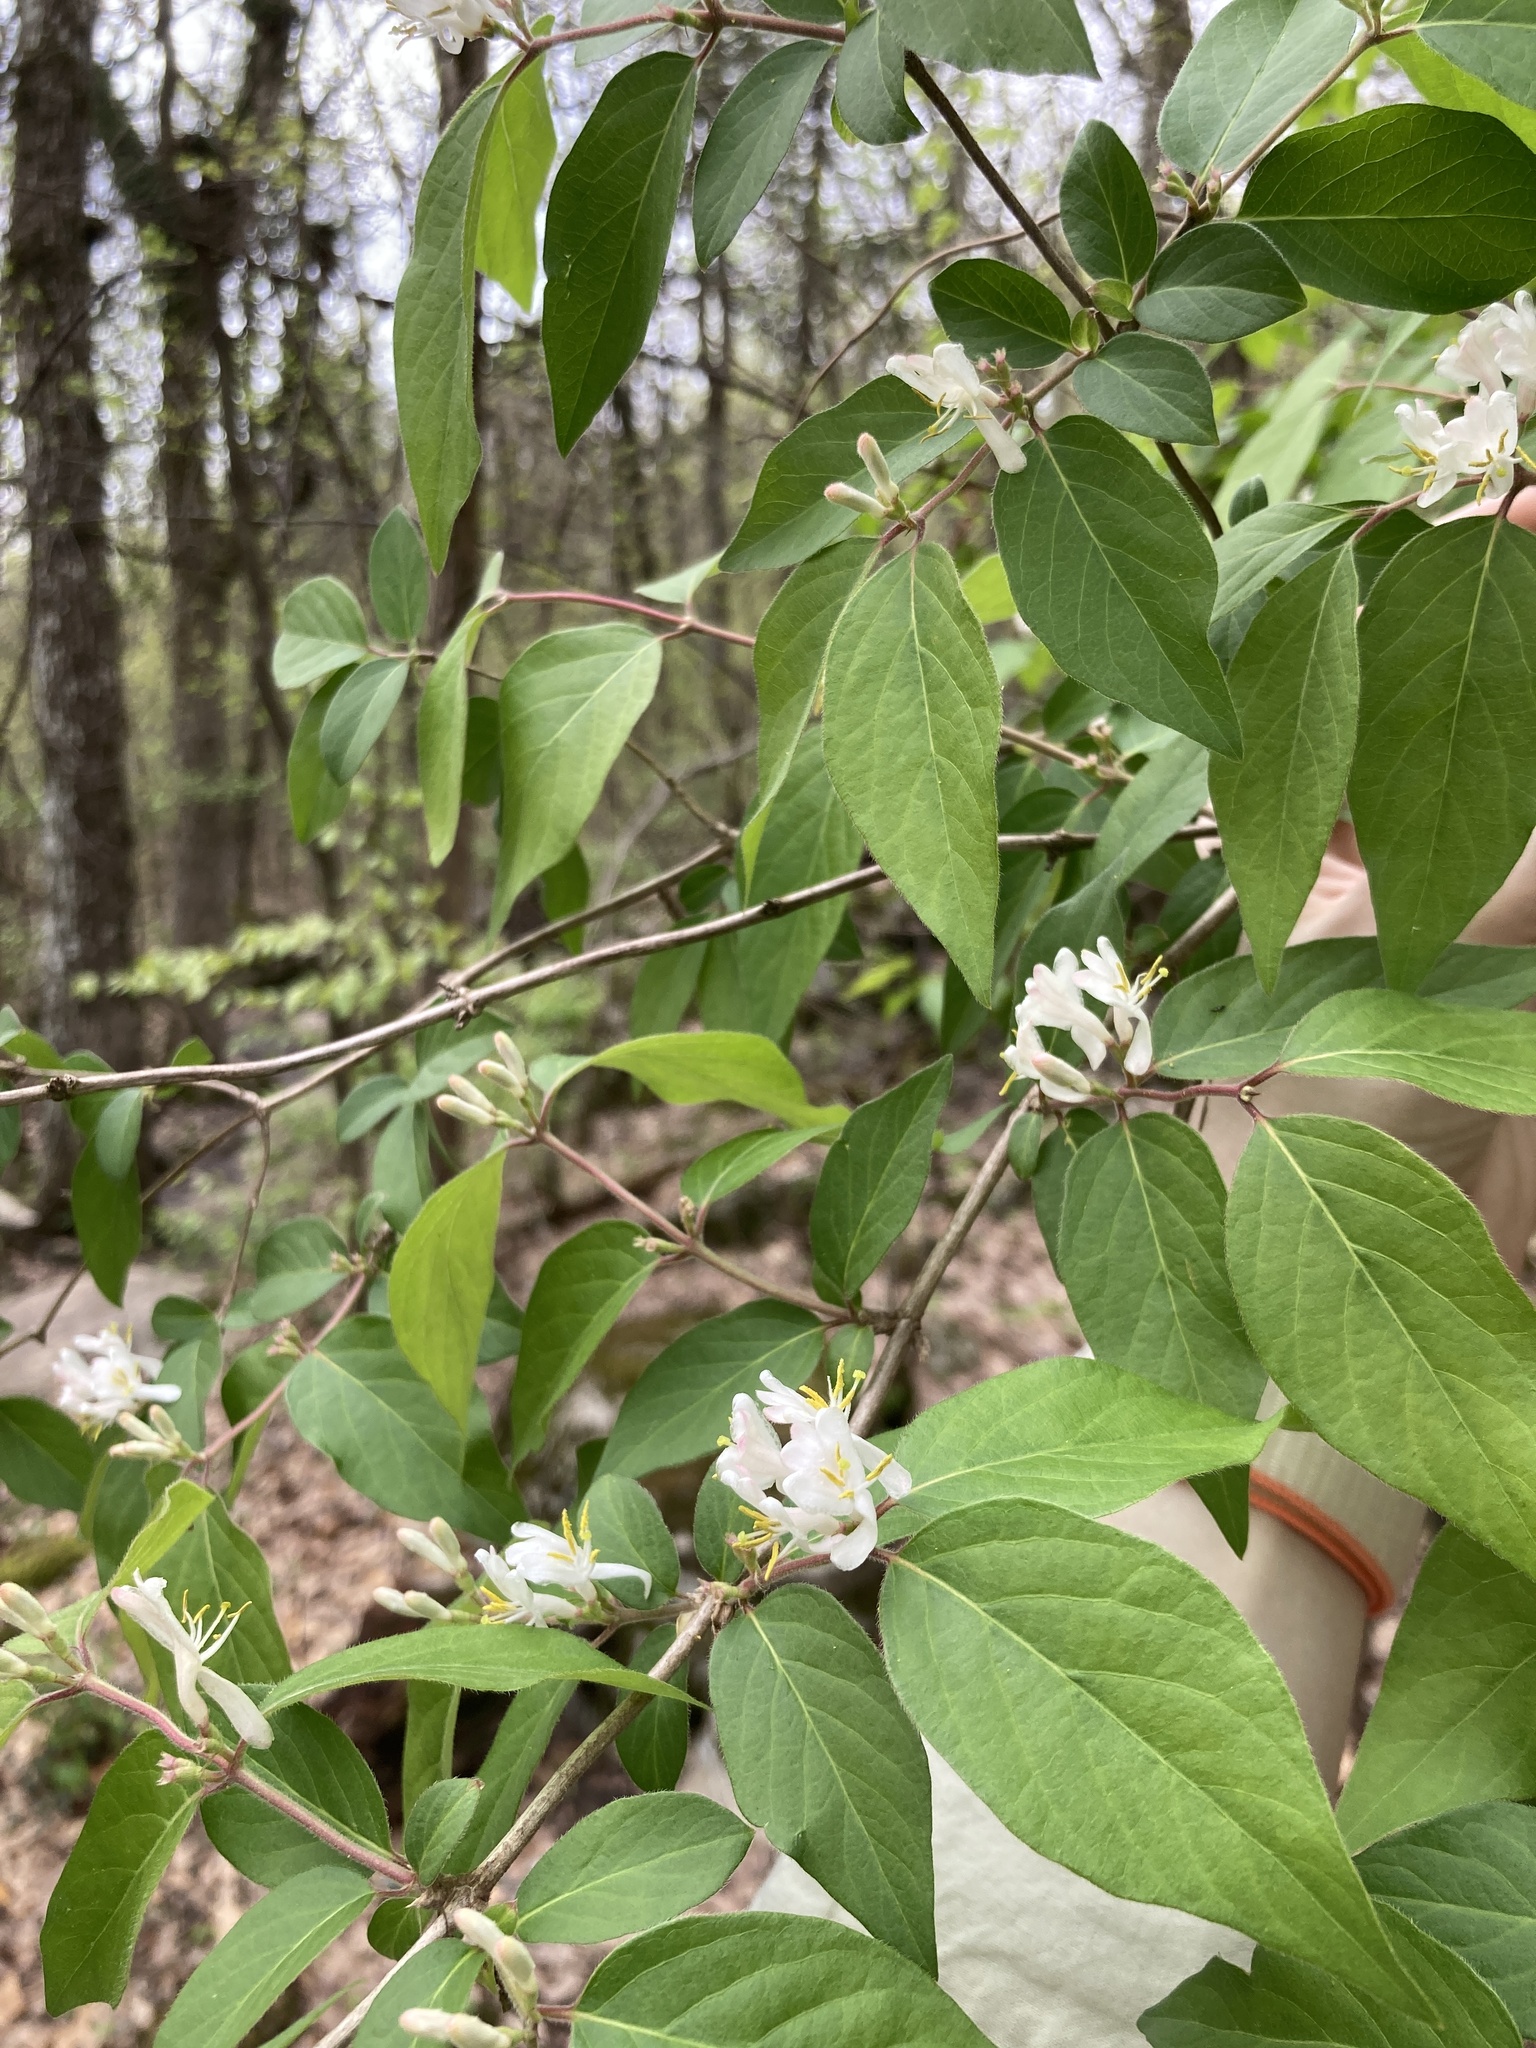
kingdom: Plantae
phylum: Tracheophyta
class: Magnoliopsida
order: Dipsacales
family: Caprifoliaceae
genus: Lonicera
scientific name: Lonicera maackii
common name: Amur honeysuckle
